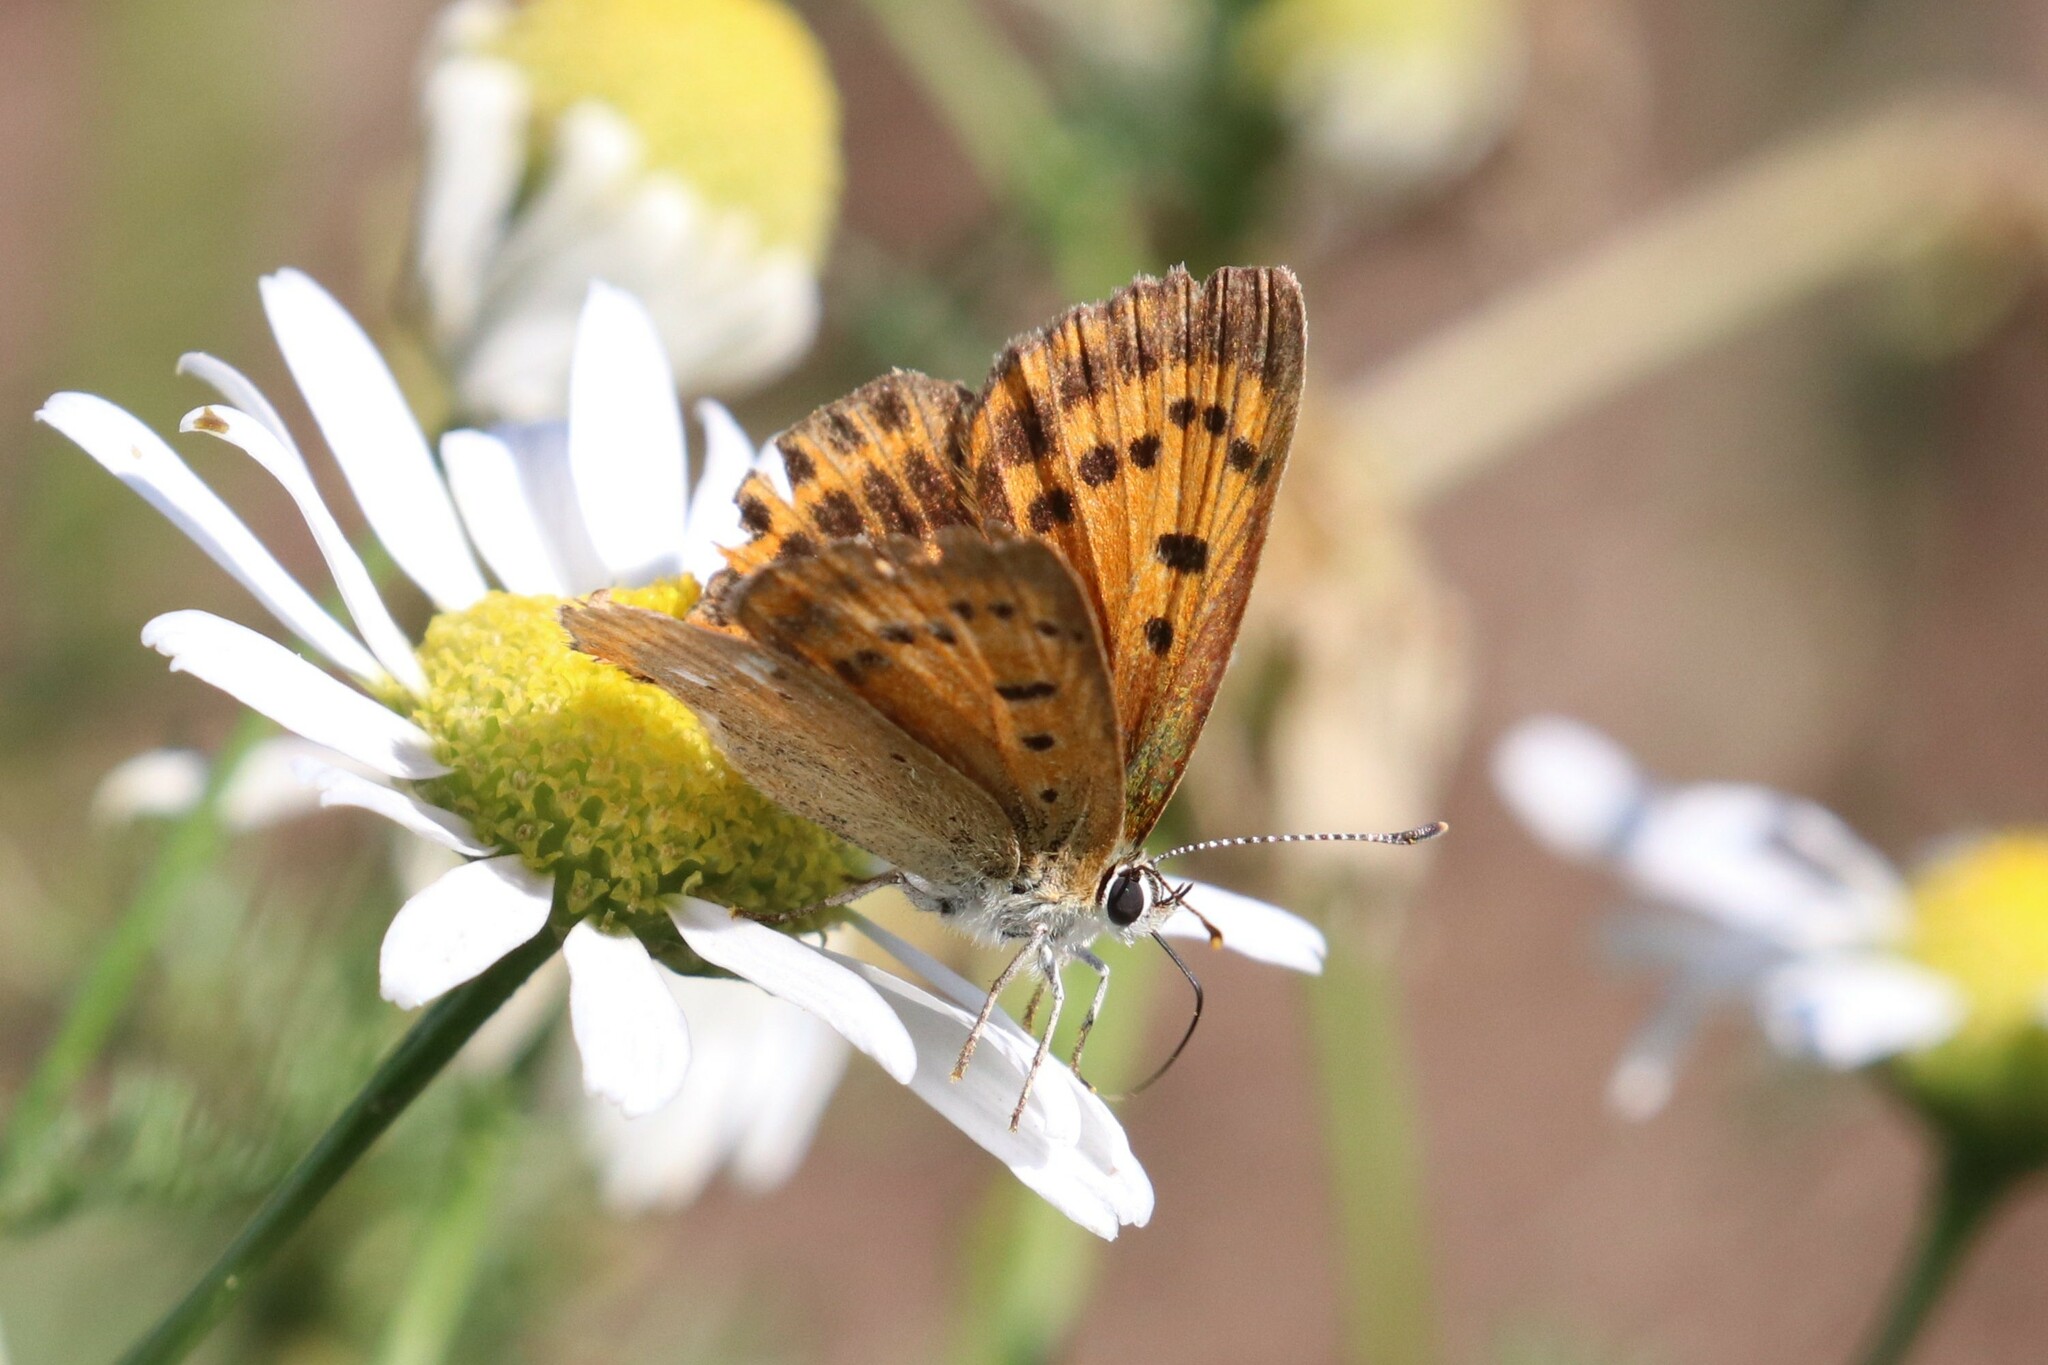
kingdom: Animalia
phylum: Arthropoda
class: Insecta
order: Lepidoptera
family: Lycaenidae
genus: Lycaena
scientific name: Lycaena virgaureae
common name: Scarce copper
